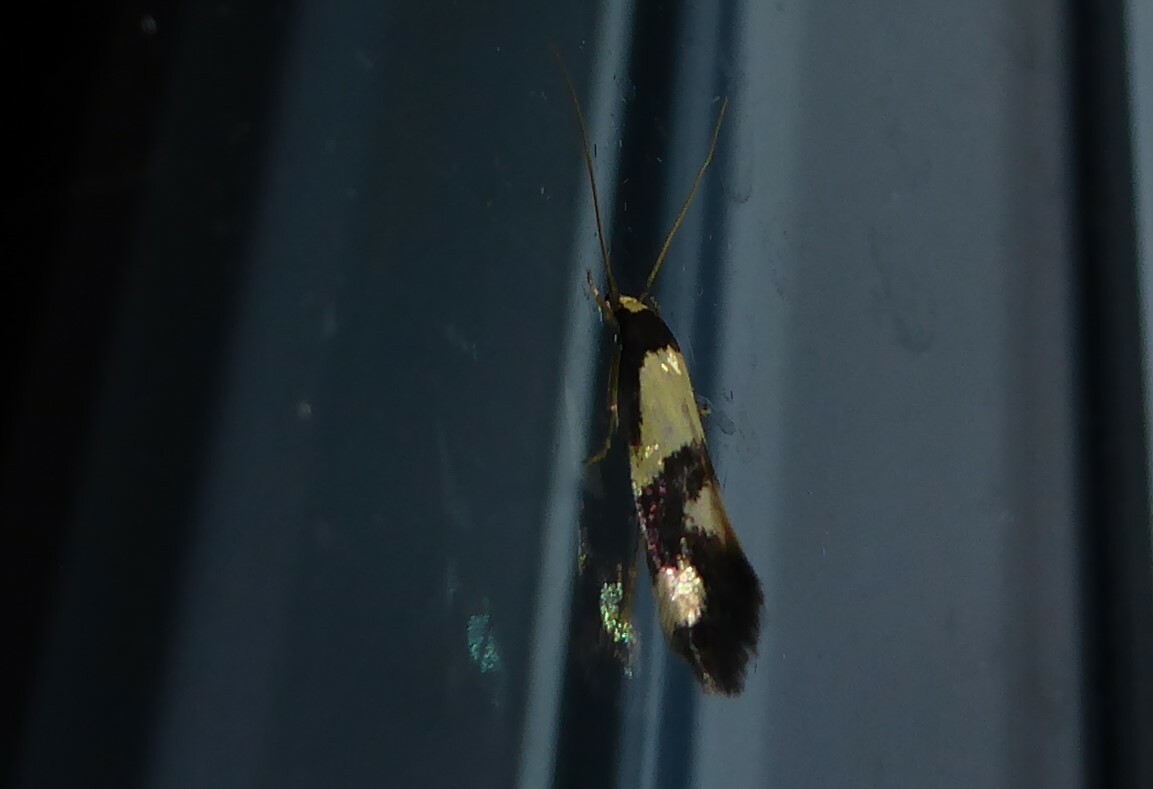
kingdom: Animalia
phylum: Arthropoda
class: Insecta
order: Lepidoptera
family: Tineidae
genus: Opogona
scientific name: Opogona comptella
